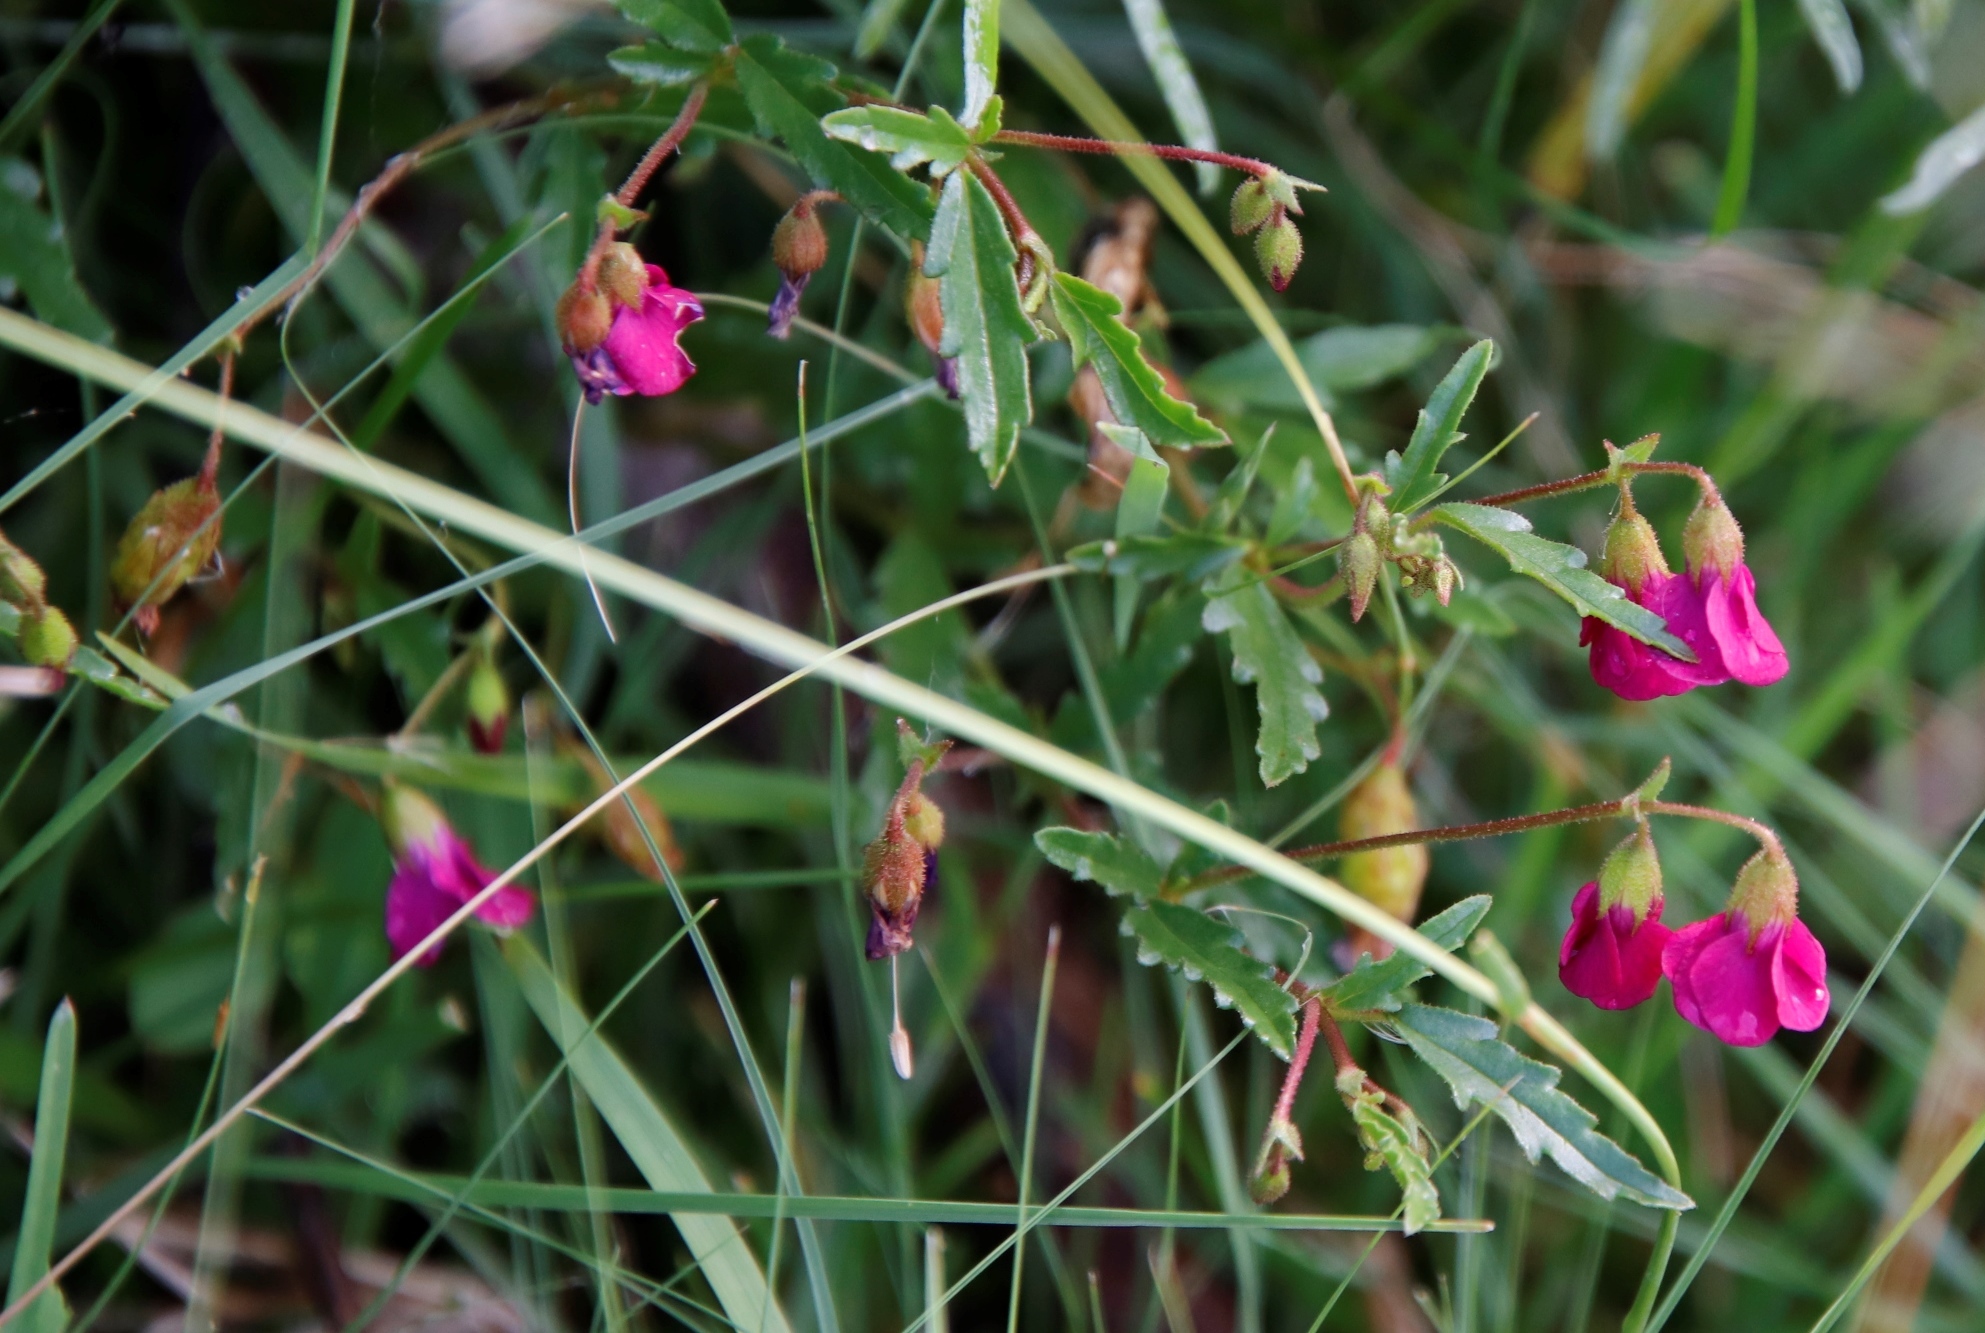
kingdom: Plantae
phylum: Tracheophyta
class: Magnoliopsida
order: Malvales
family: Malvaceae
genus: Hermannia
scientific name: Hermannia coccocarpa
